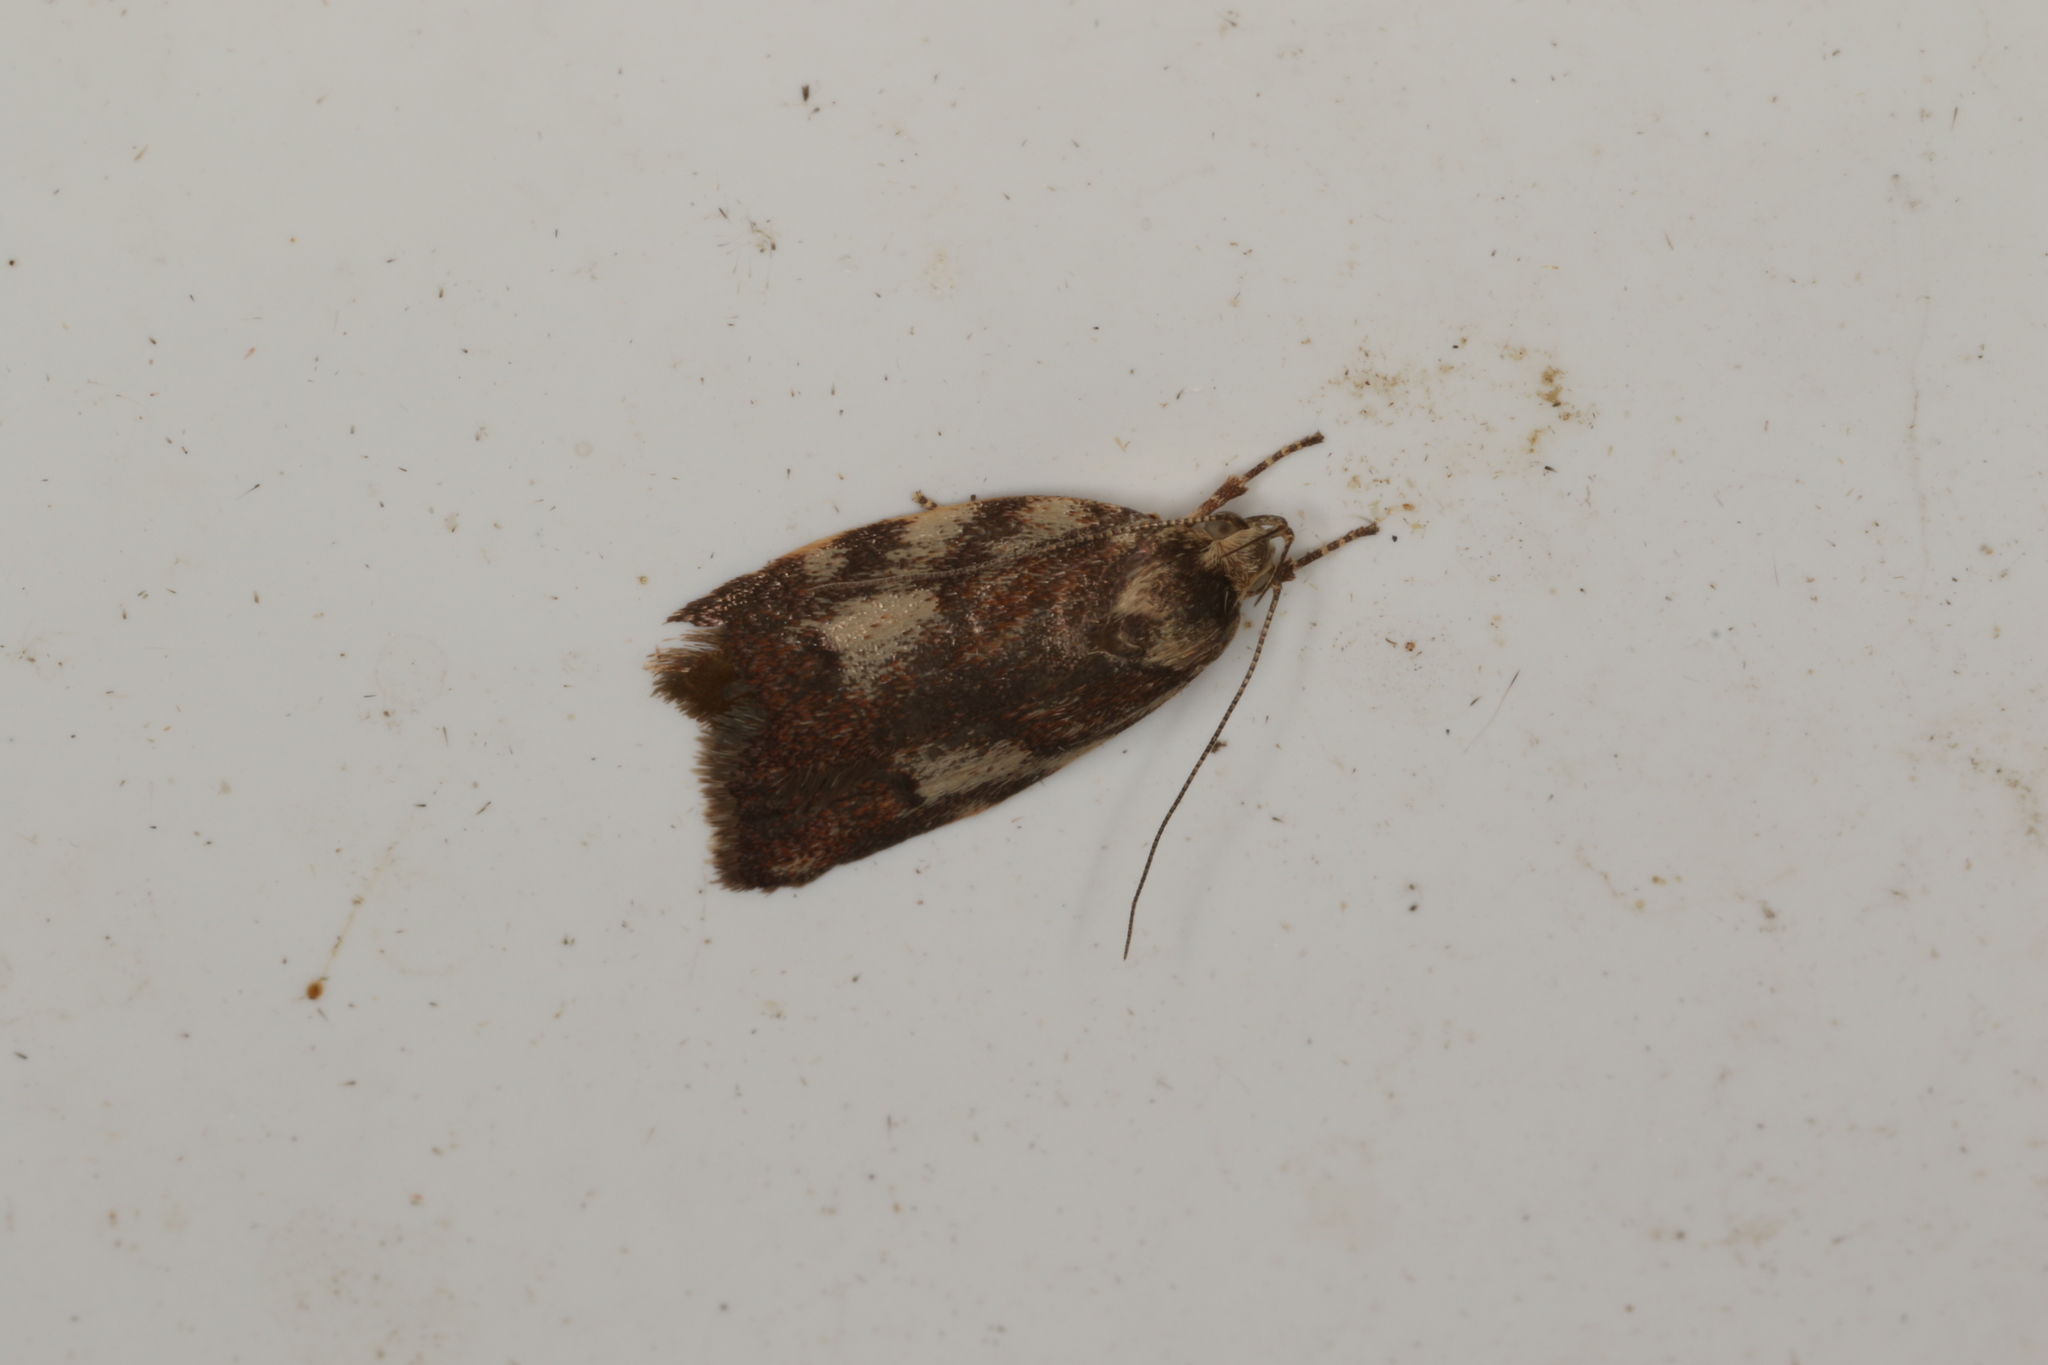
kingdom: Animalia
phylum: Arthropoda
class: Insecta
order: Lepidoptera
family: Oecophoridae
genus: Syringoseca
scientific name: Syringoseca mimica
